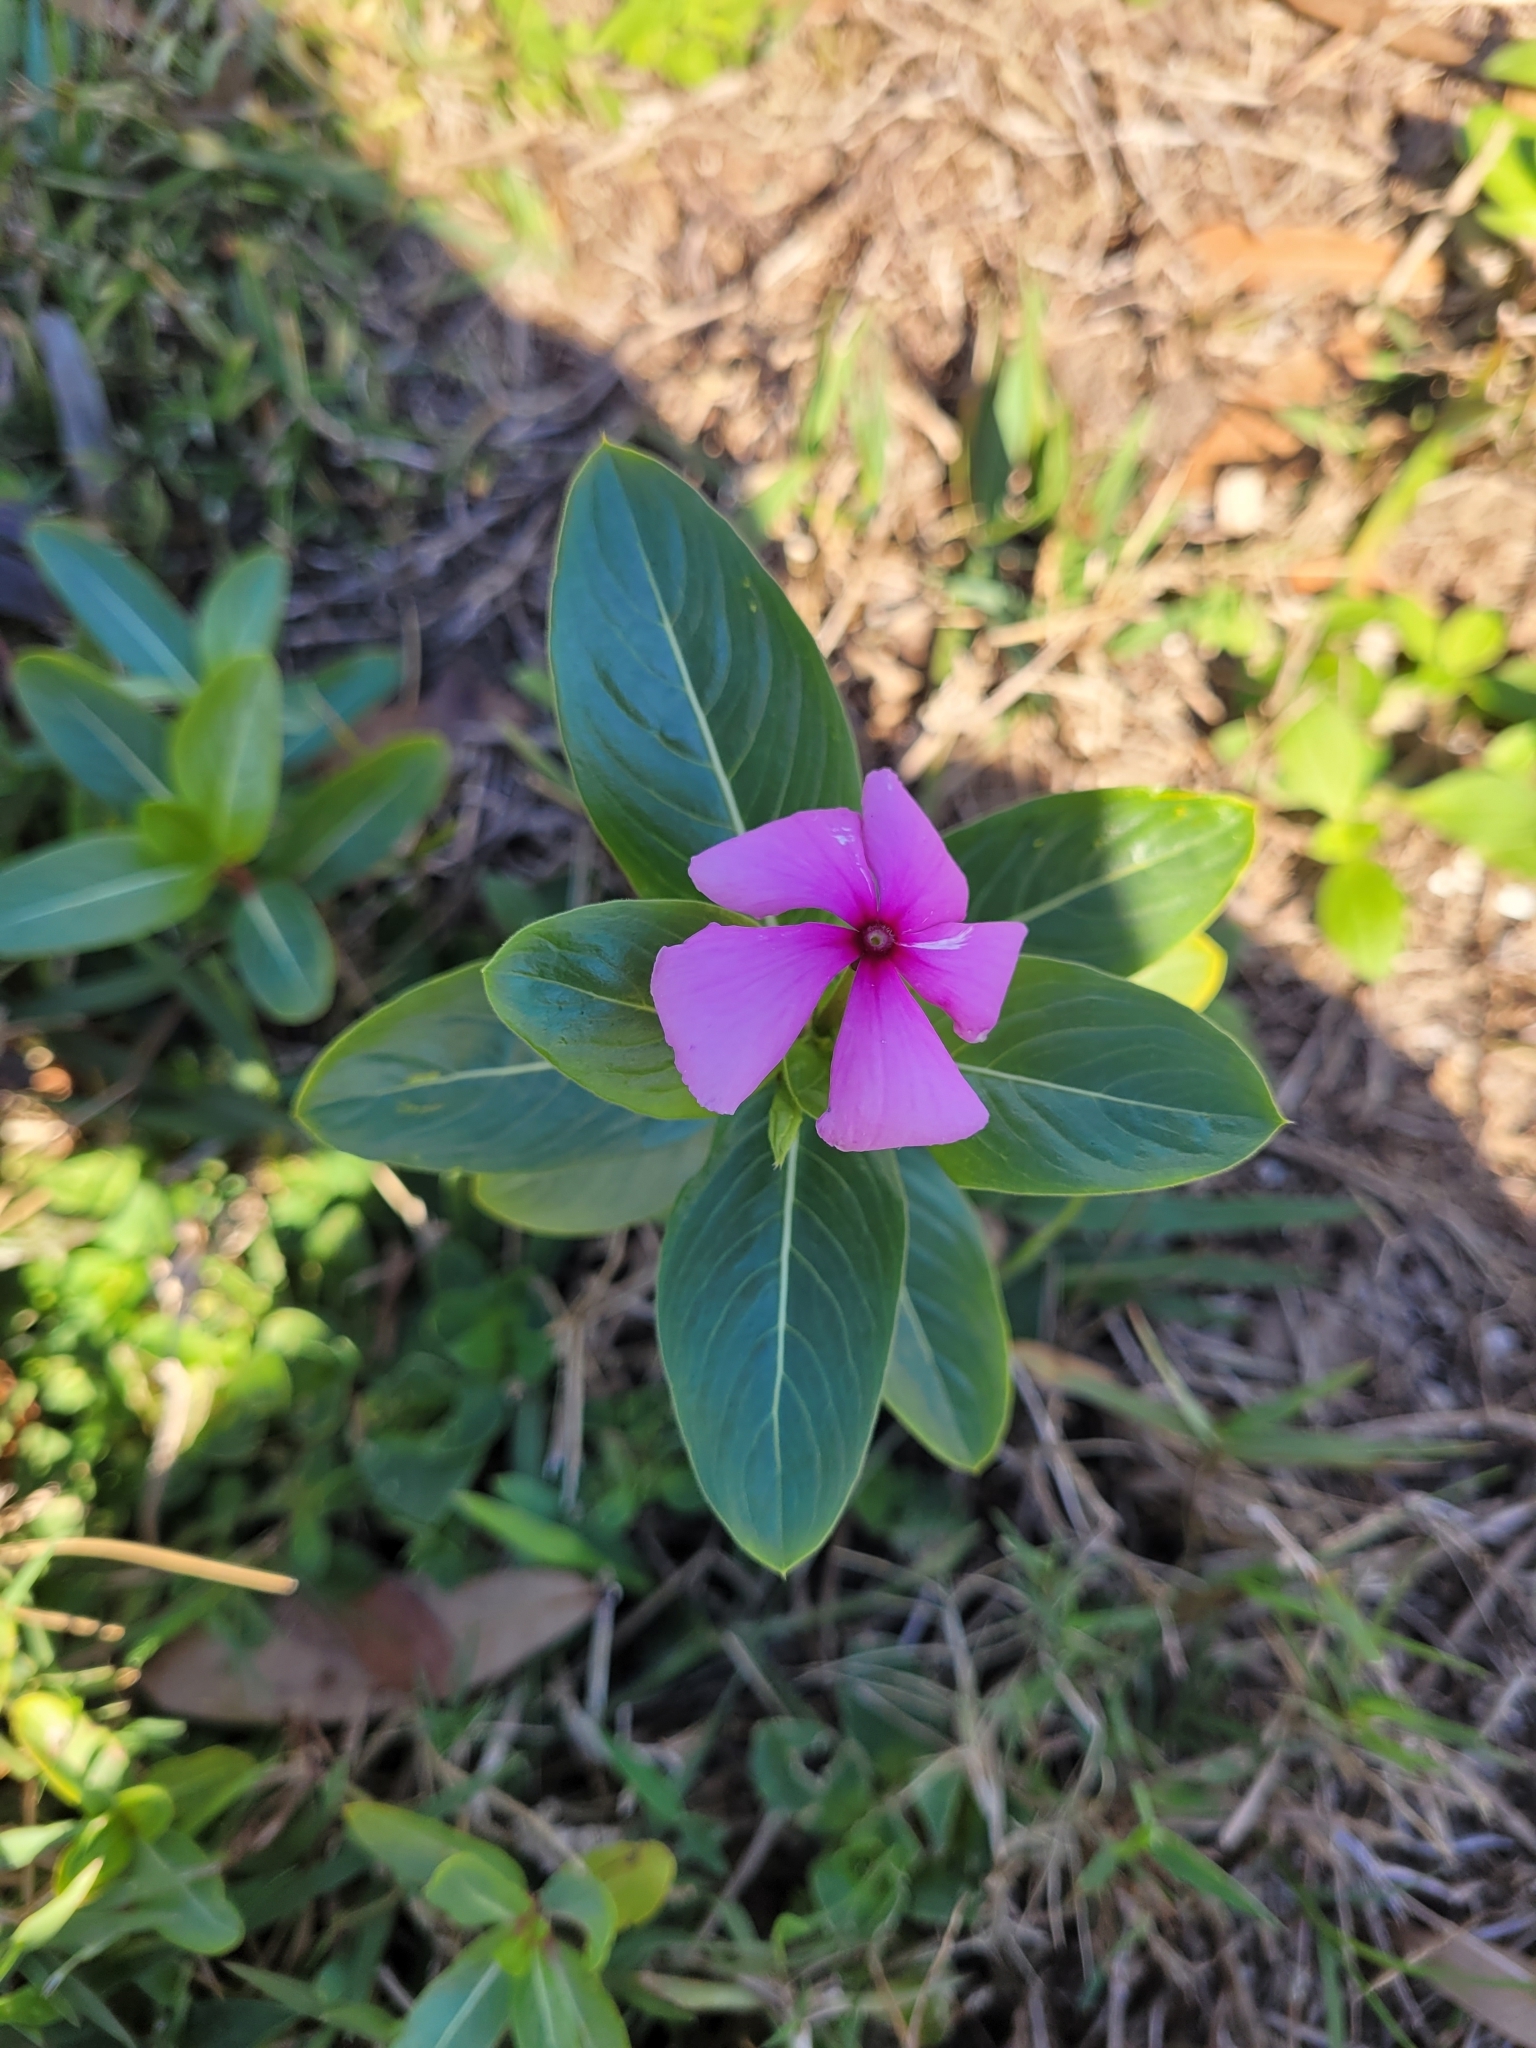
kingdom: Plantae
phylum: Tracheophyta
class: Magnoliopsida
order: Gentianales
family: Apocynaceae
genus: Catharanthus
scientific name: Catharanthus roseus
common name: Madagascar periwinkle
